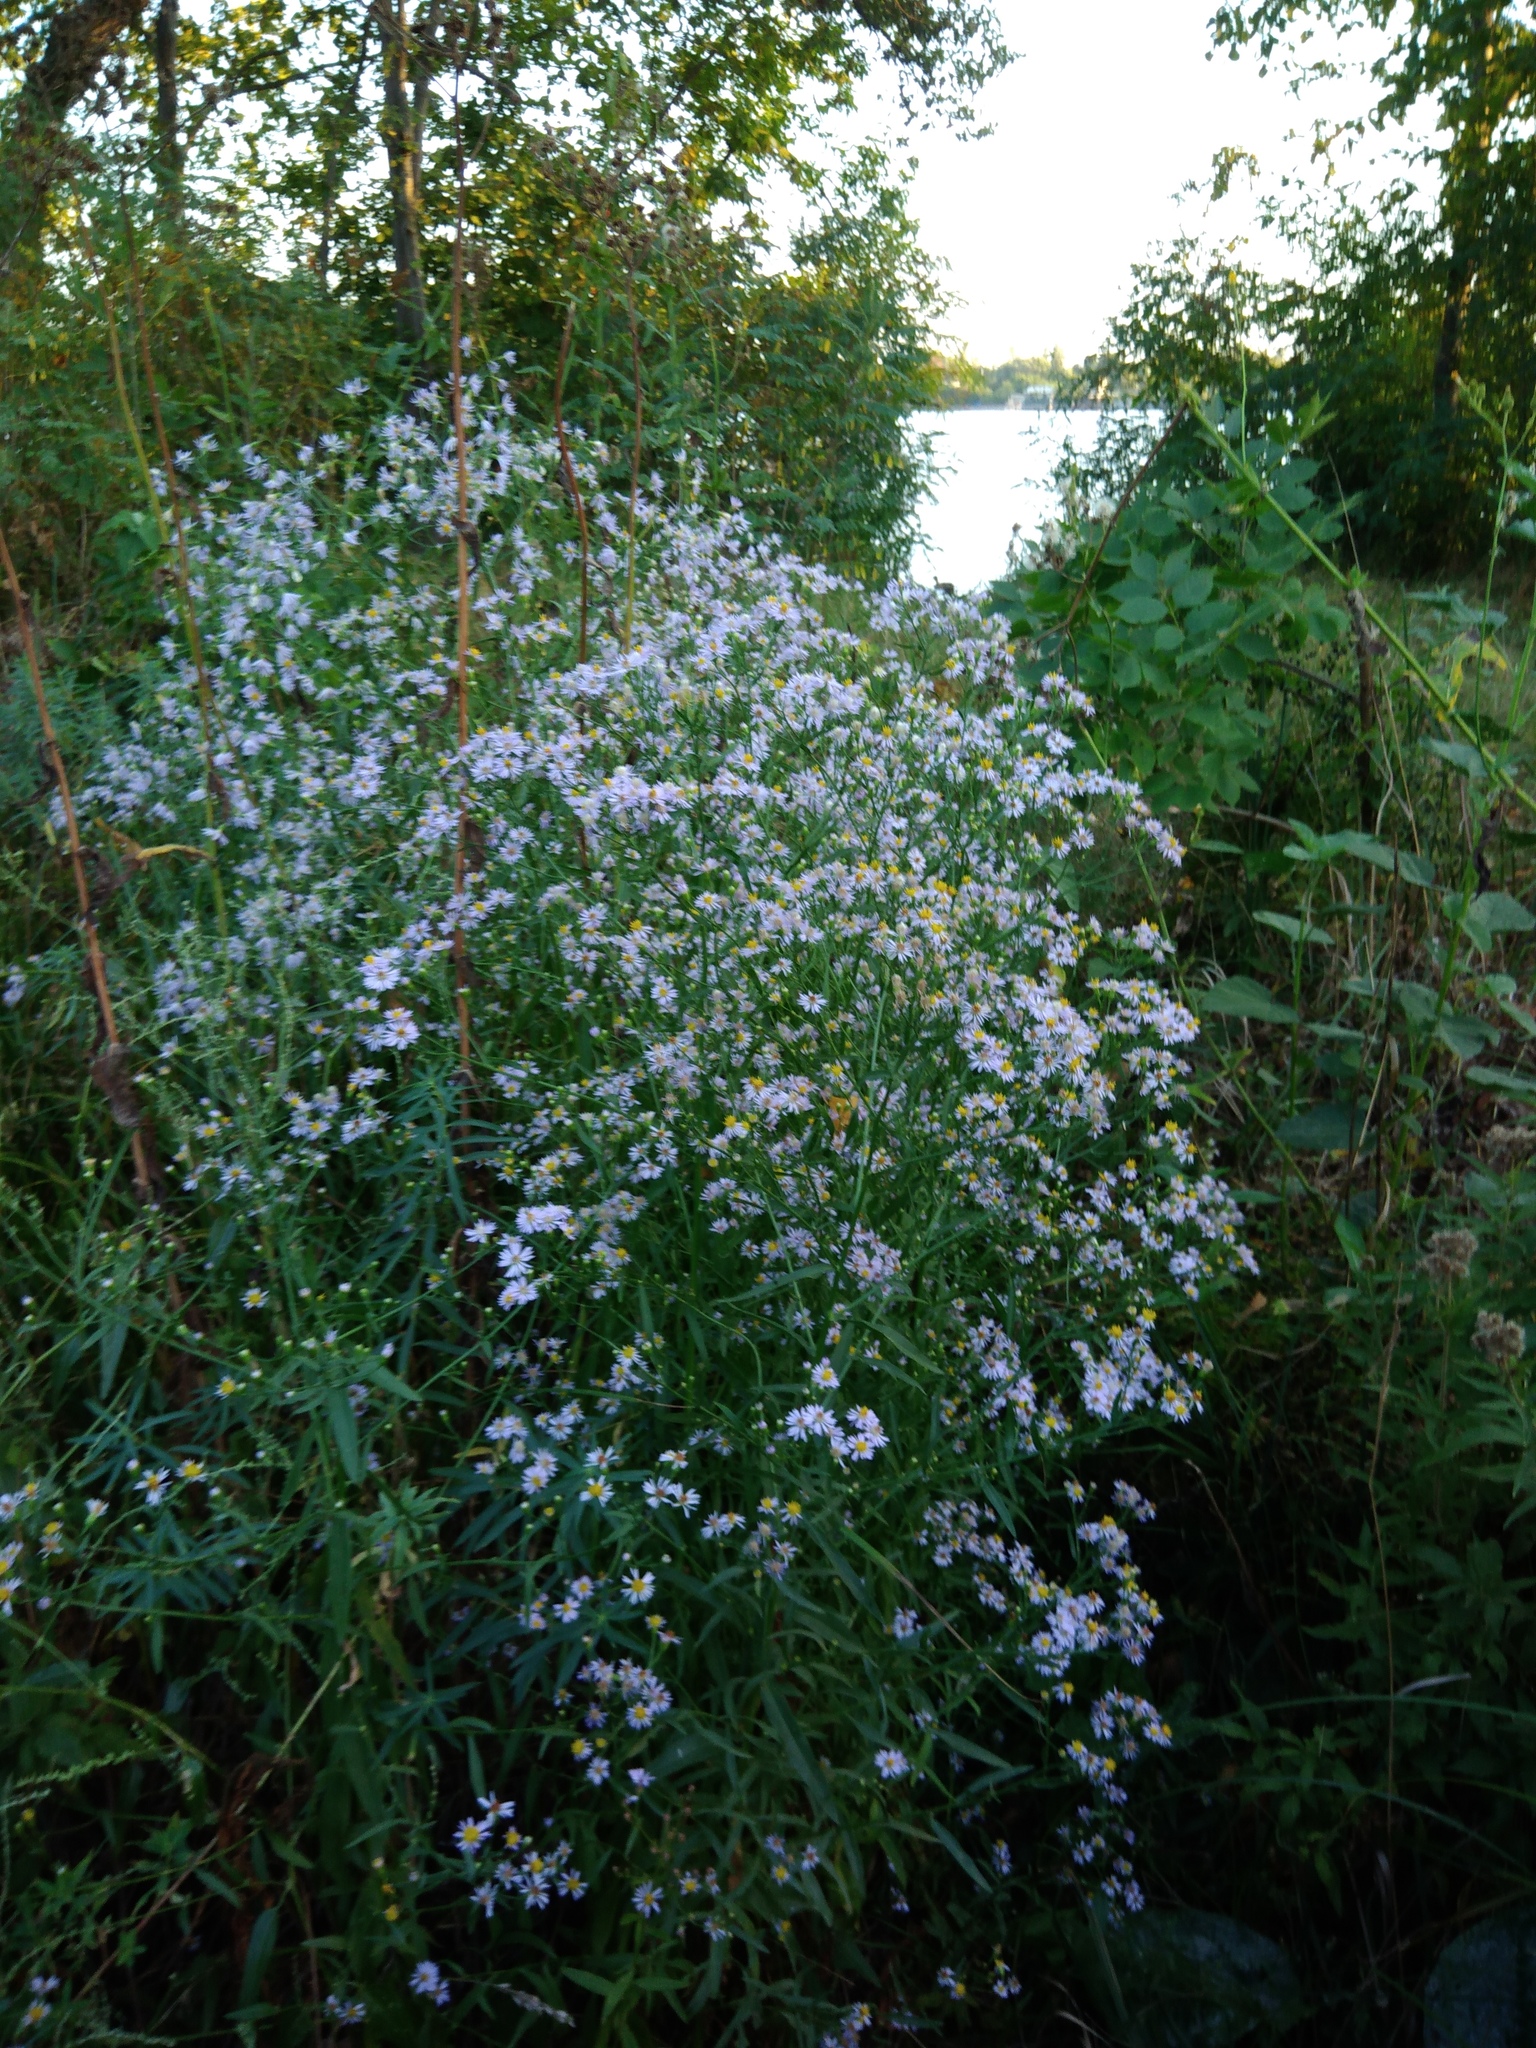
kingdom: Plantae
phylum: Tracheophyta
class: Magnoliopsida
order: Asterales
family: Asteraceae
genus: Tripolium
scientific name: Tripolium pannonicum
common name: Sea aster
